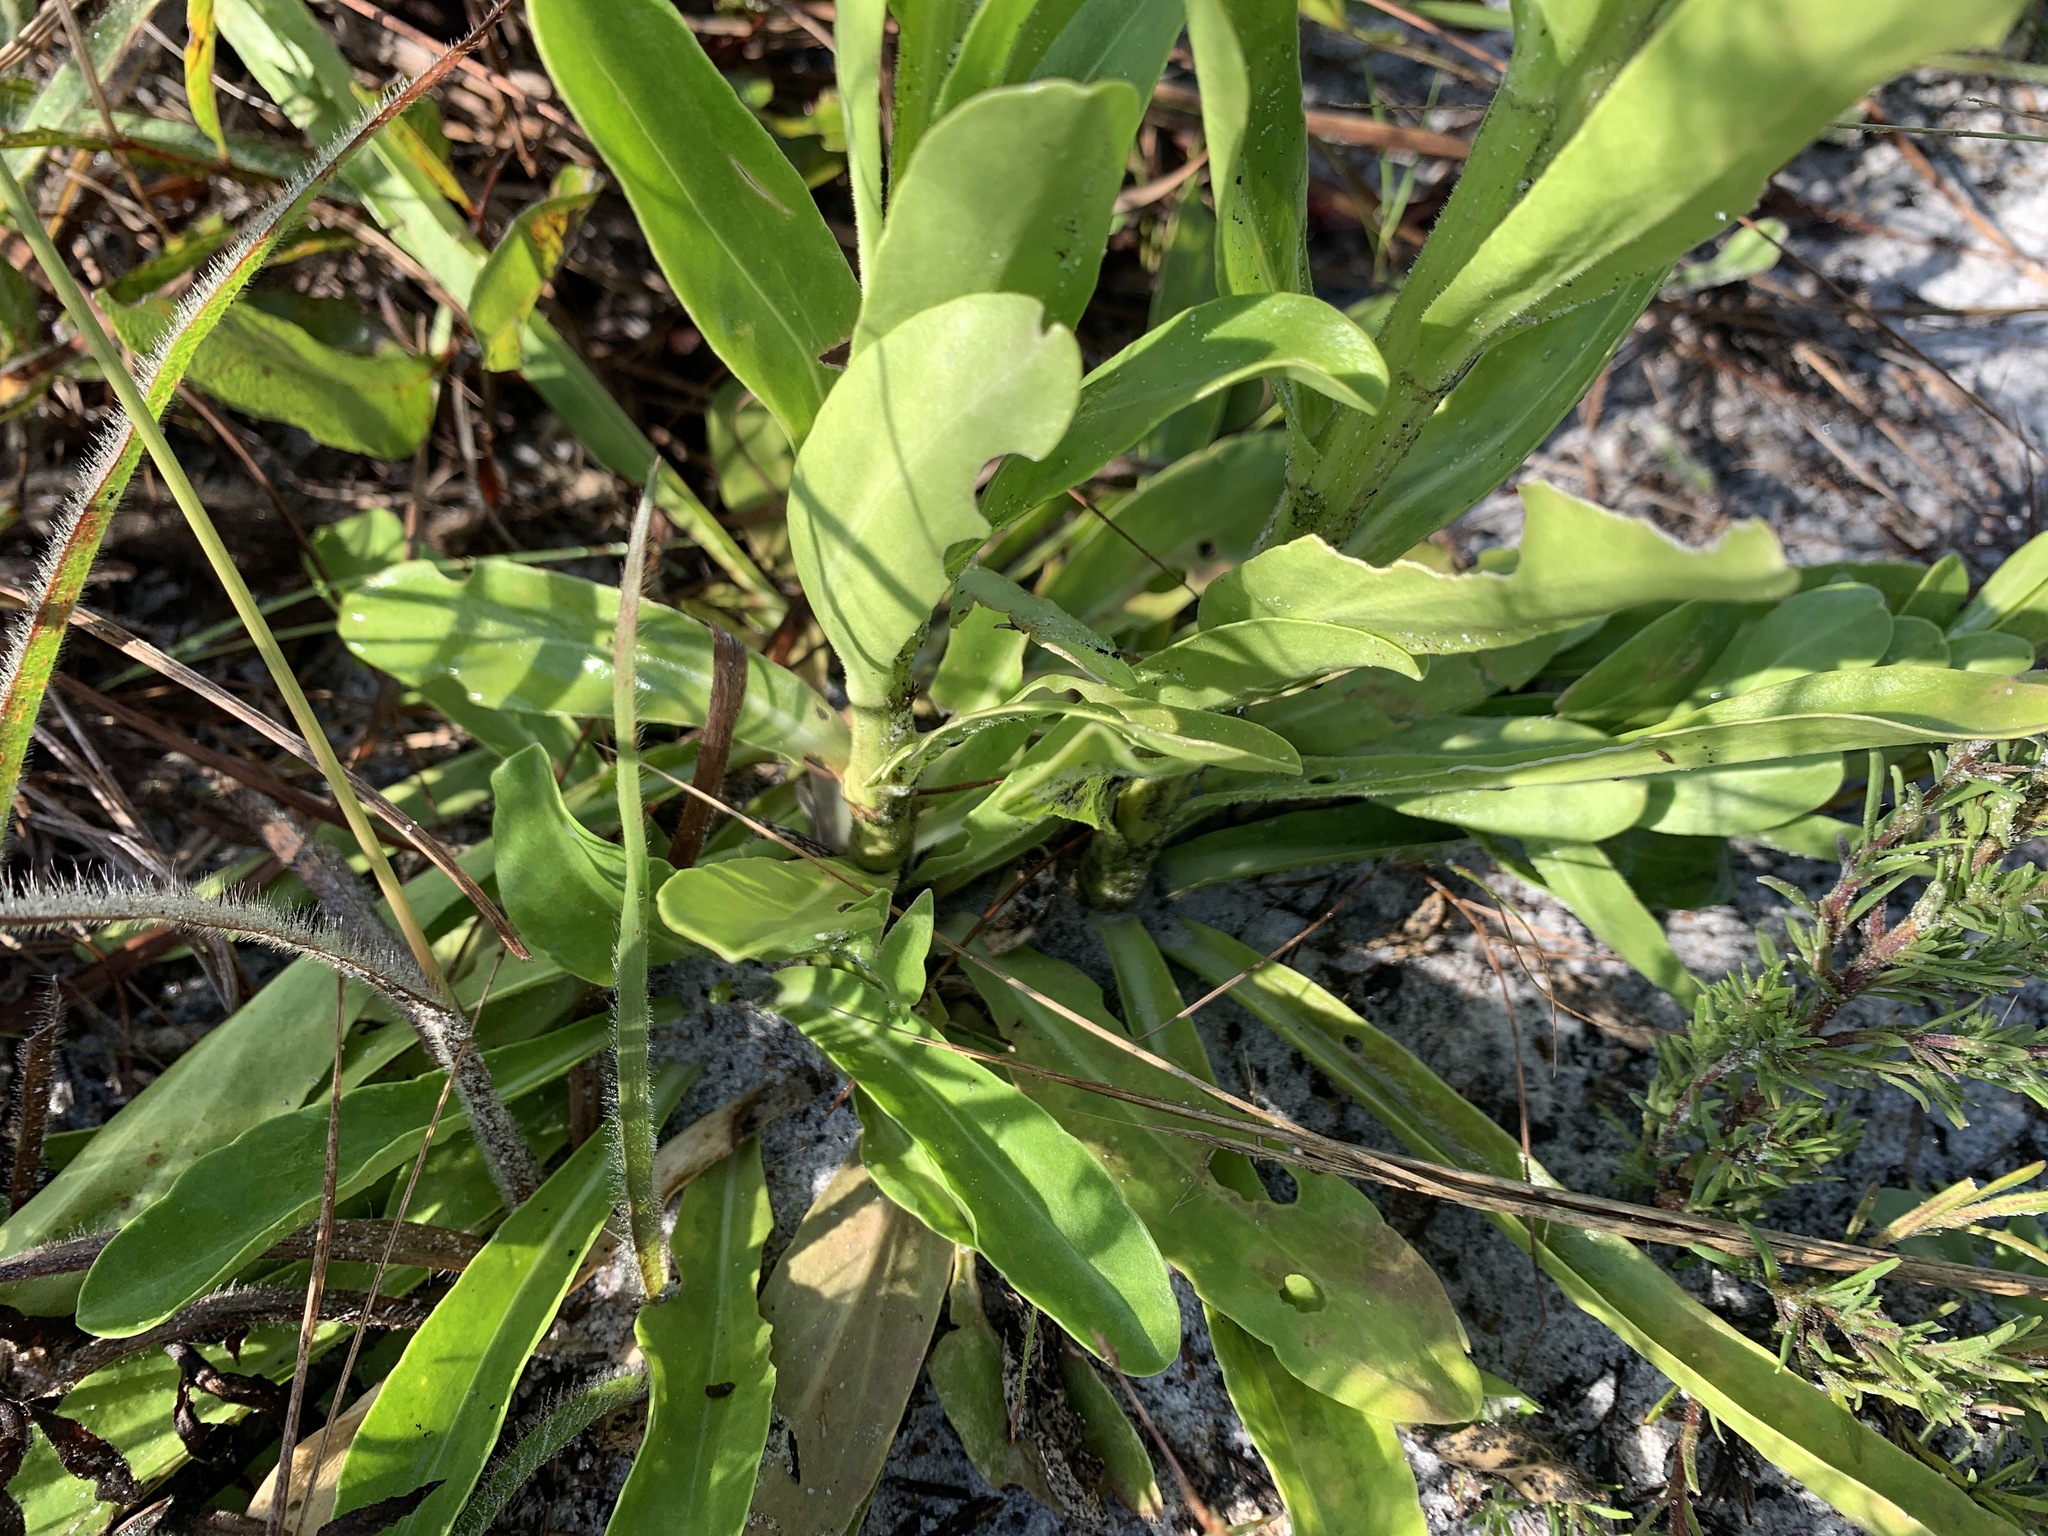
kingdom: Plantae
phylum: Tracheophyta
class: Magnoliopsida
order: Asterales
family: Asteraceae
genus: Carphephorus
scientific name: Carphephorus corymbosus
